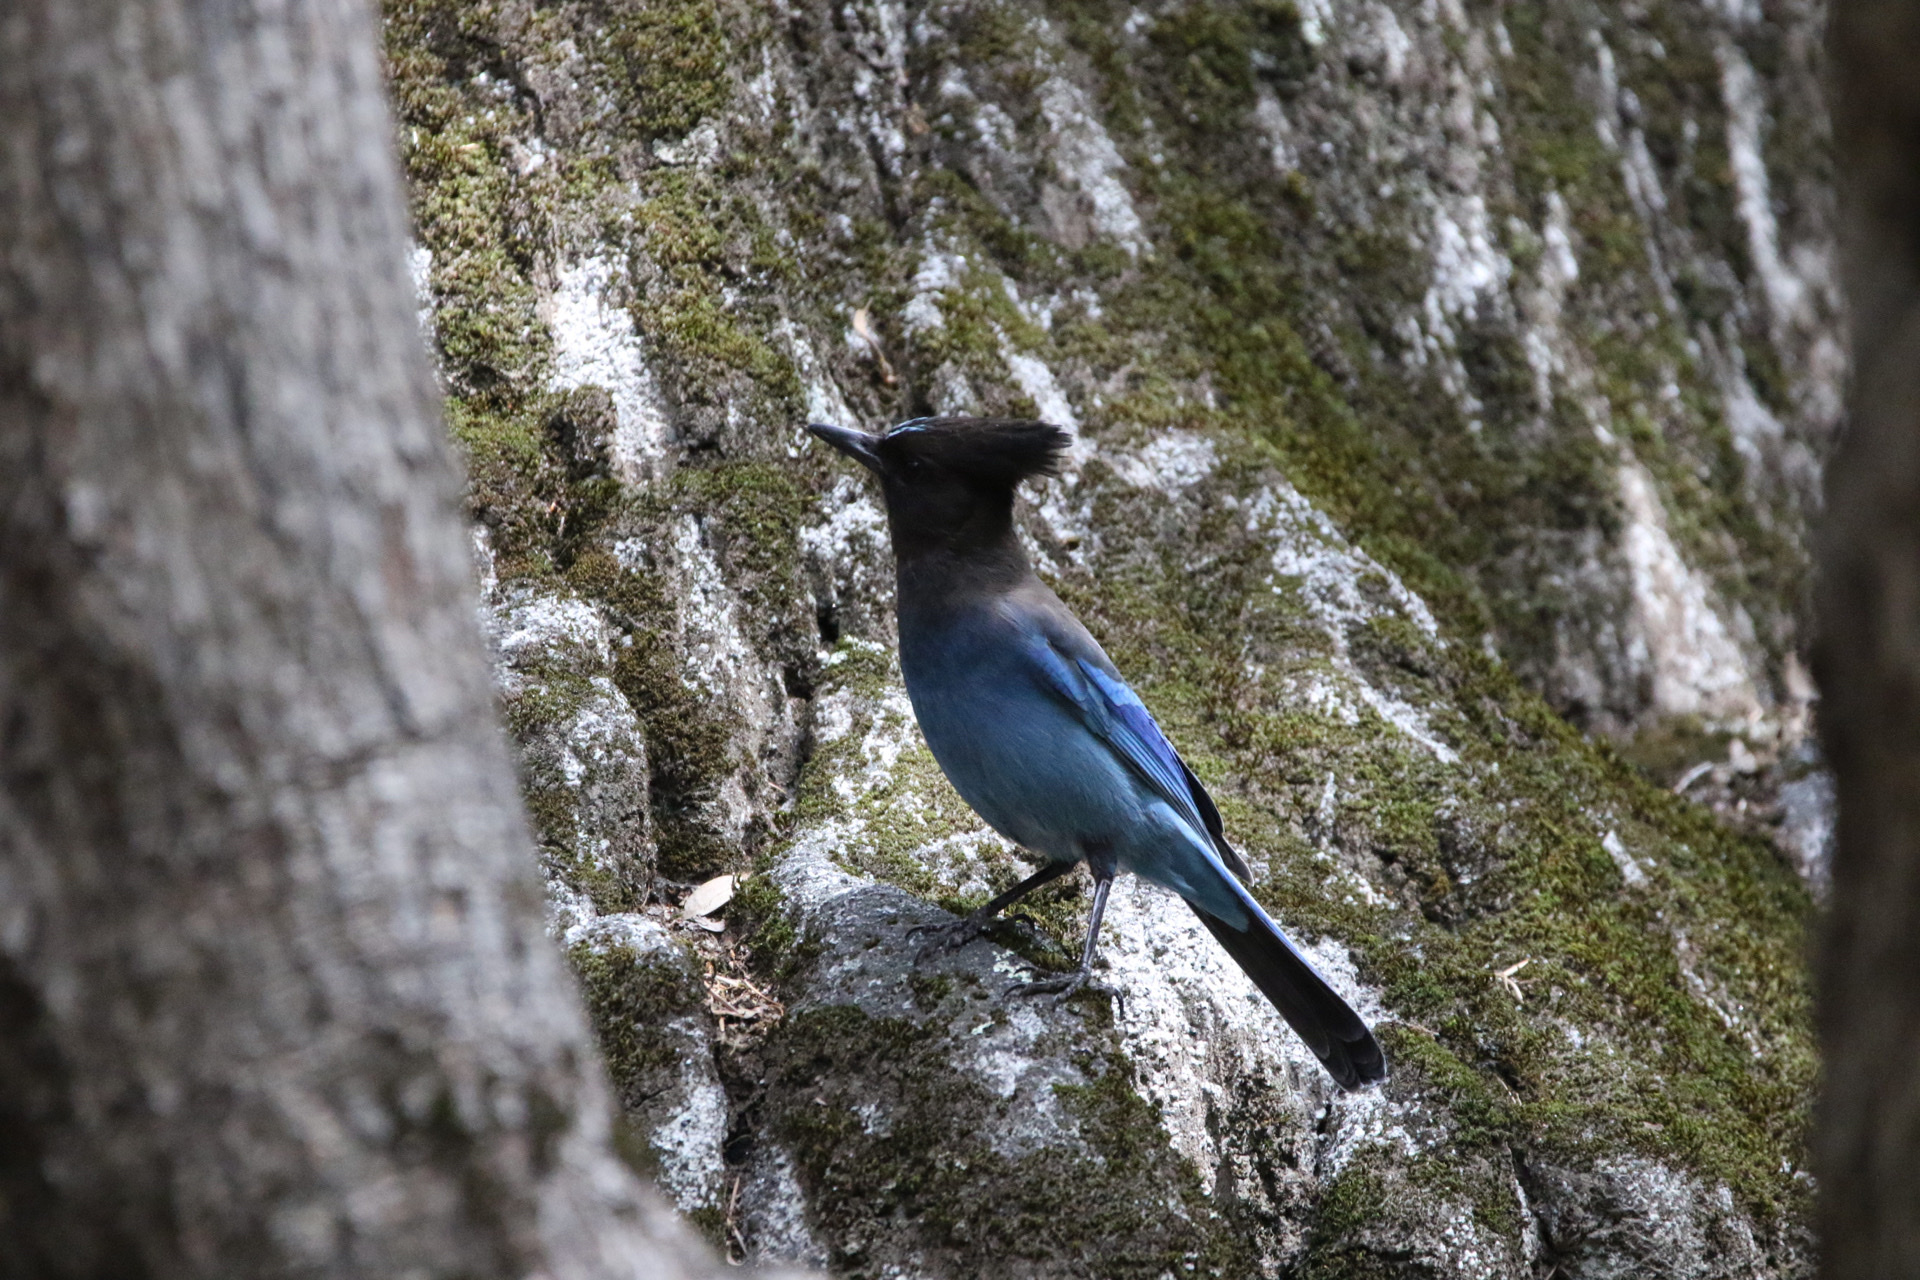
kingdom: Animalia
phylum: Chordata
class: Aves
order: Passeriformes
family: Corvidae
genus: Cyanocitta
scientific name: Cyanocitta stelleri
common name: Steller's jay
